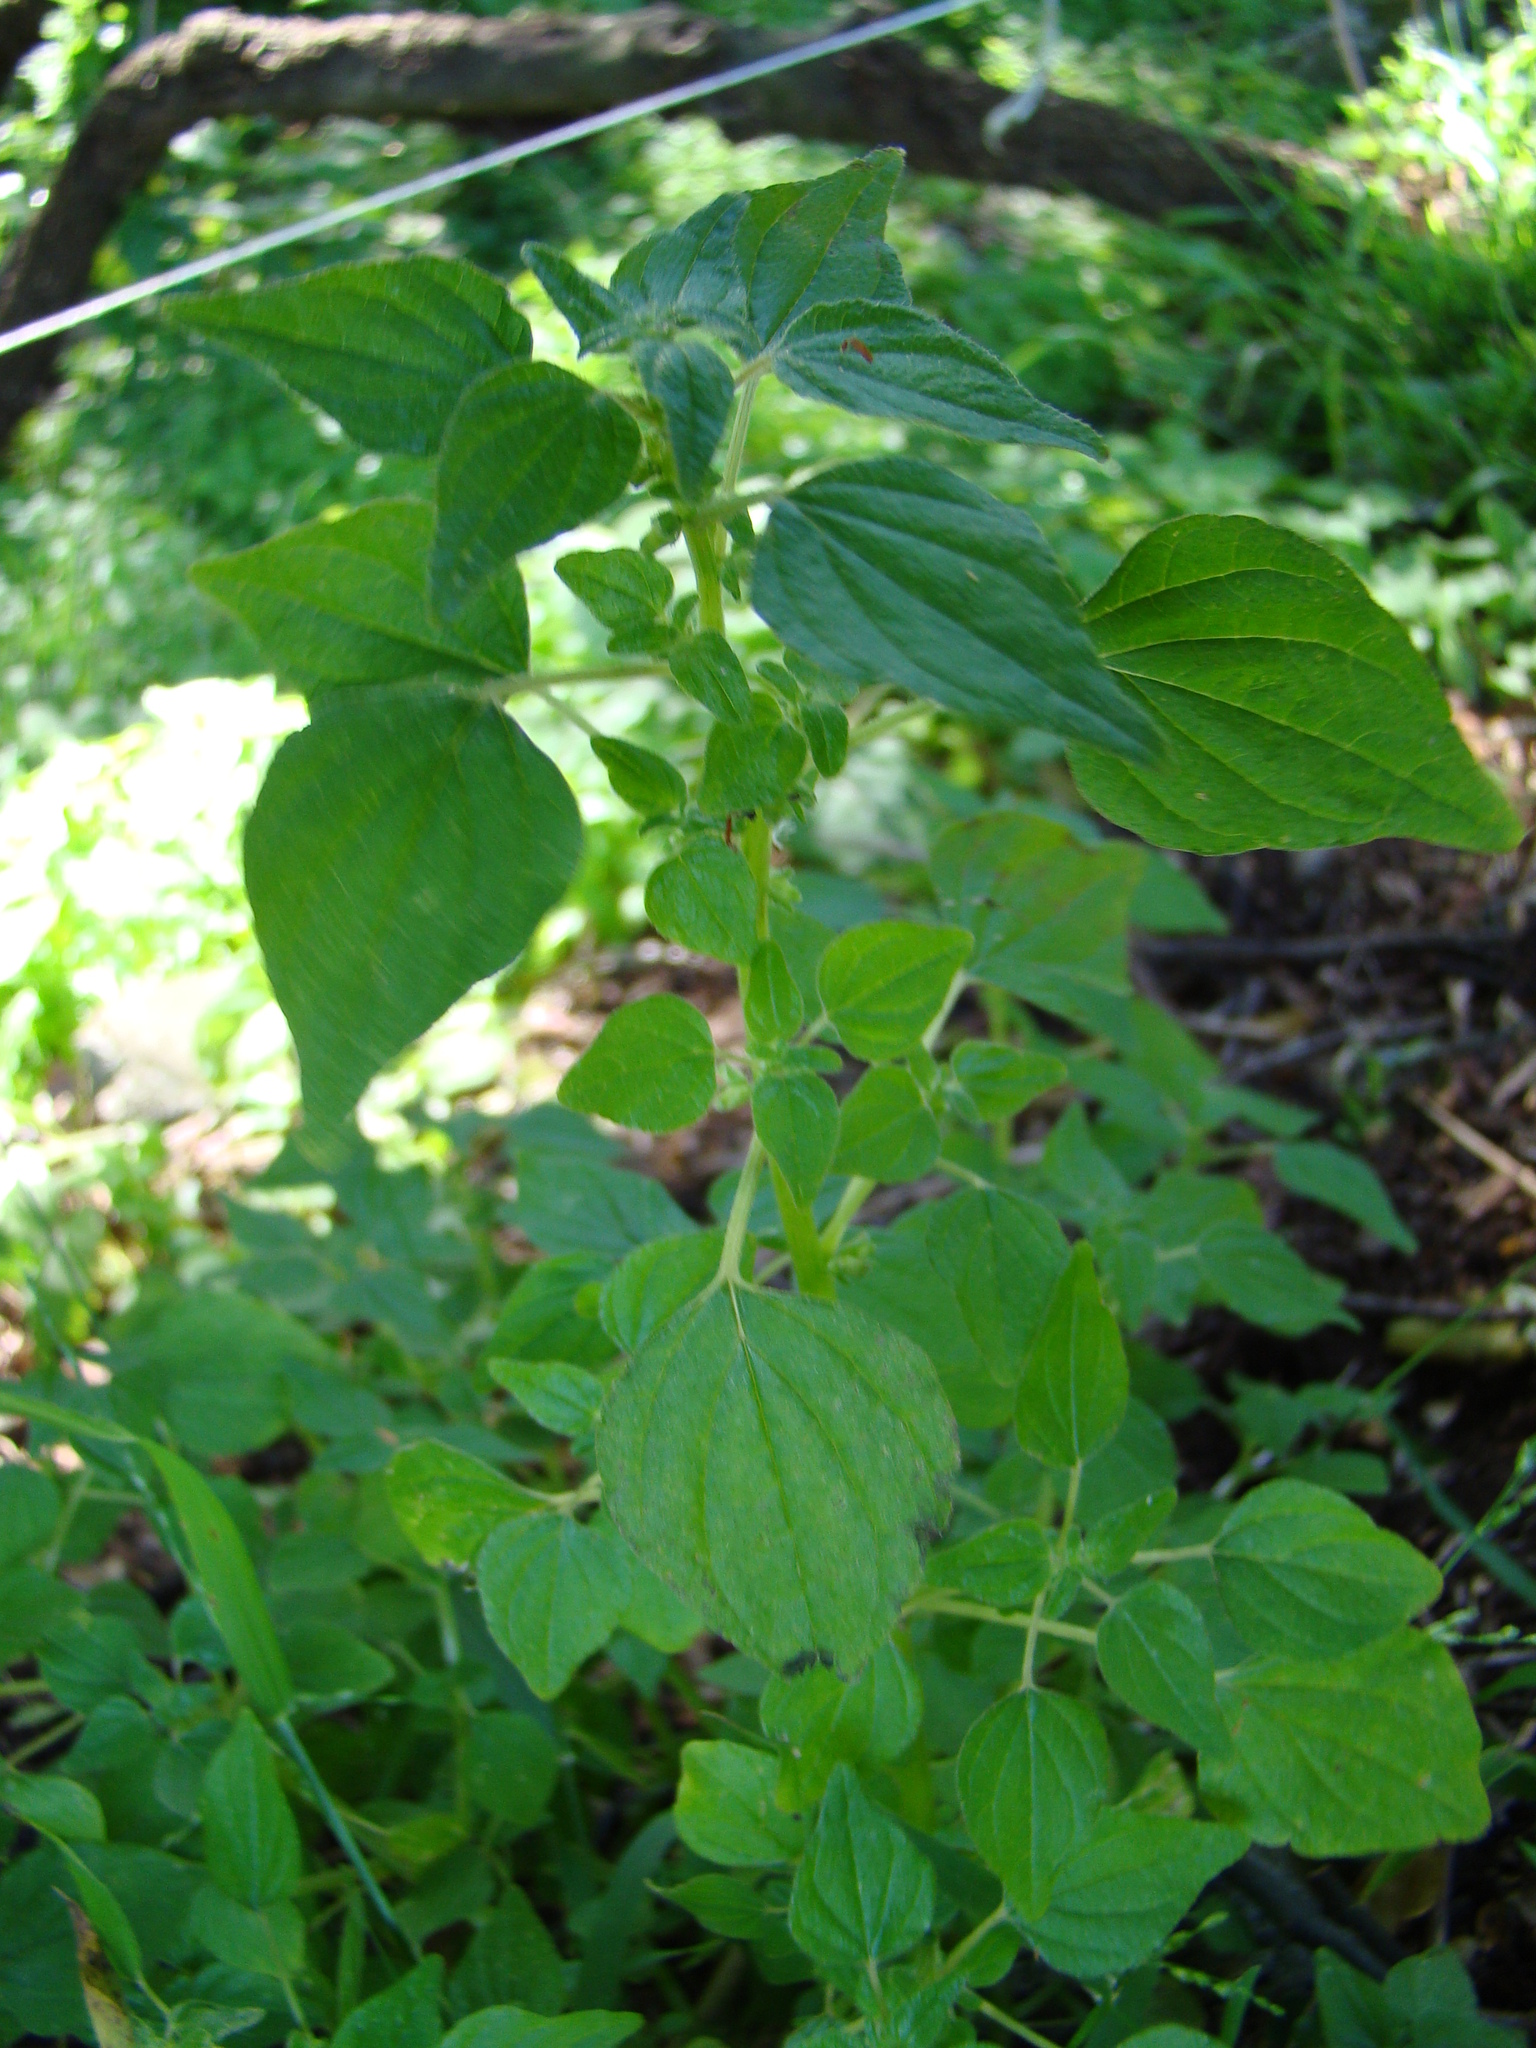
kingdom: Plantae
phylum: Tracheophyta
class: Magnoliopsida
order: Rosales
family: Urticaceae
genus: Parietaria
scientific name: Parietaria debilis
